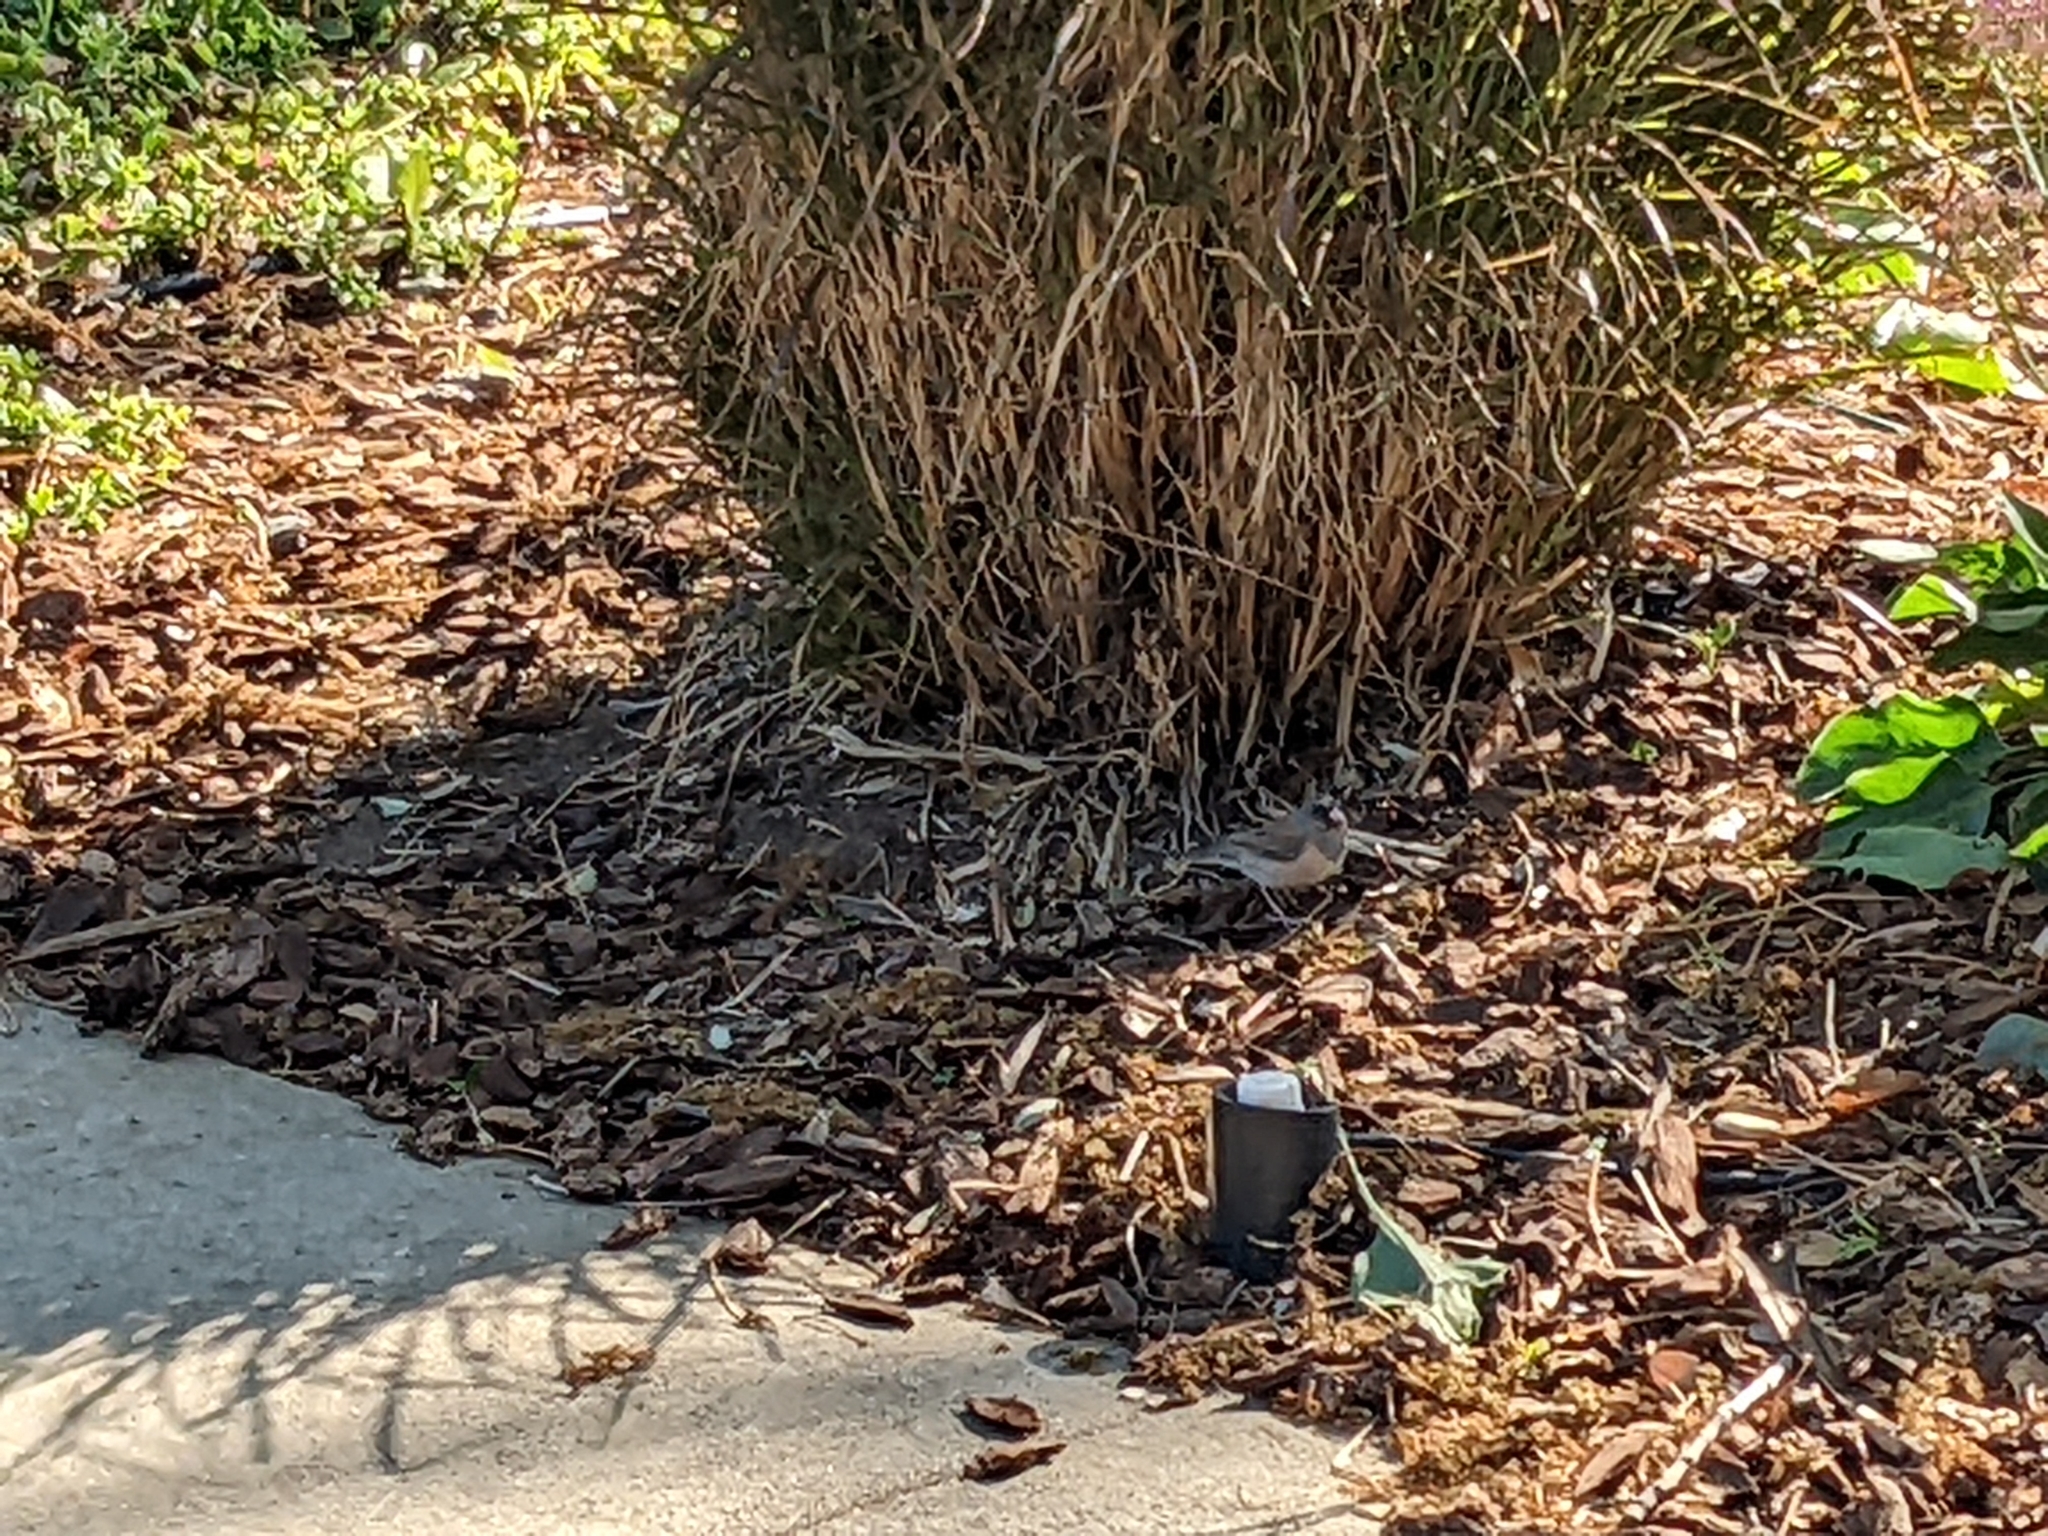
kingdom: Animalia
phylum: Chordata
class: Aves
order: Passeriformes
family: Passerellidae
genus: Junco
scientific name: Junco hyemalis
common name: Dark-eyed junco
